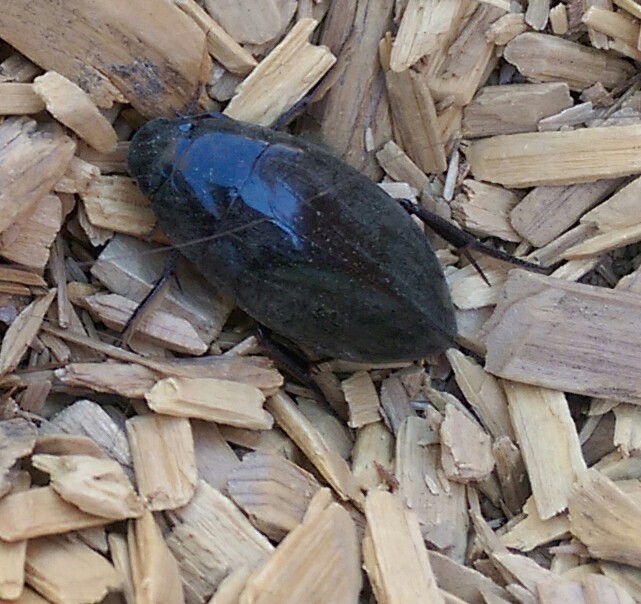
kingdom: Animalia
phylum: Arthropoda
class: Insecta
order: Coleoptera
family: Hydrophilidae
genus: Hydrophilus
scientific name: Hydrophilus triangularis
